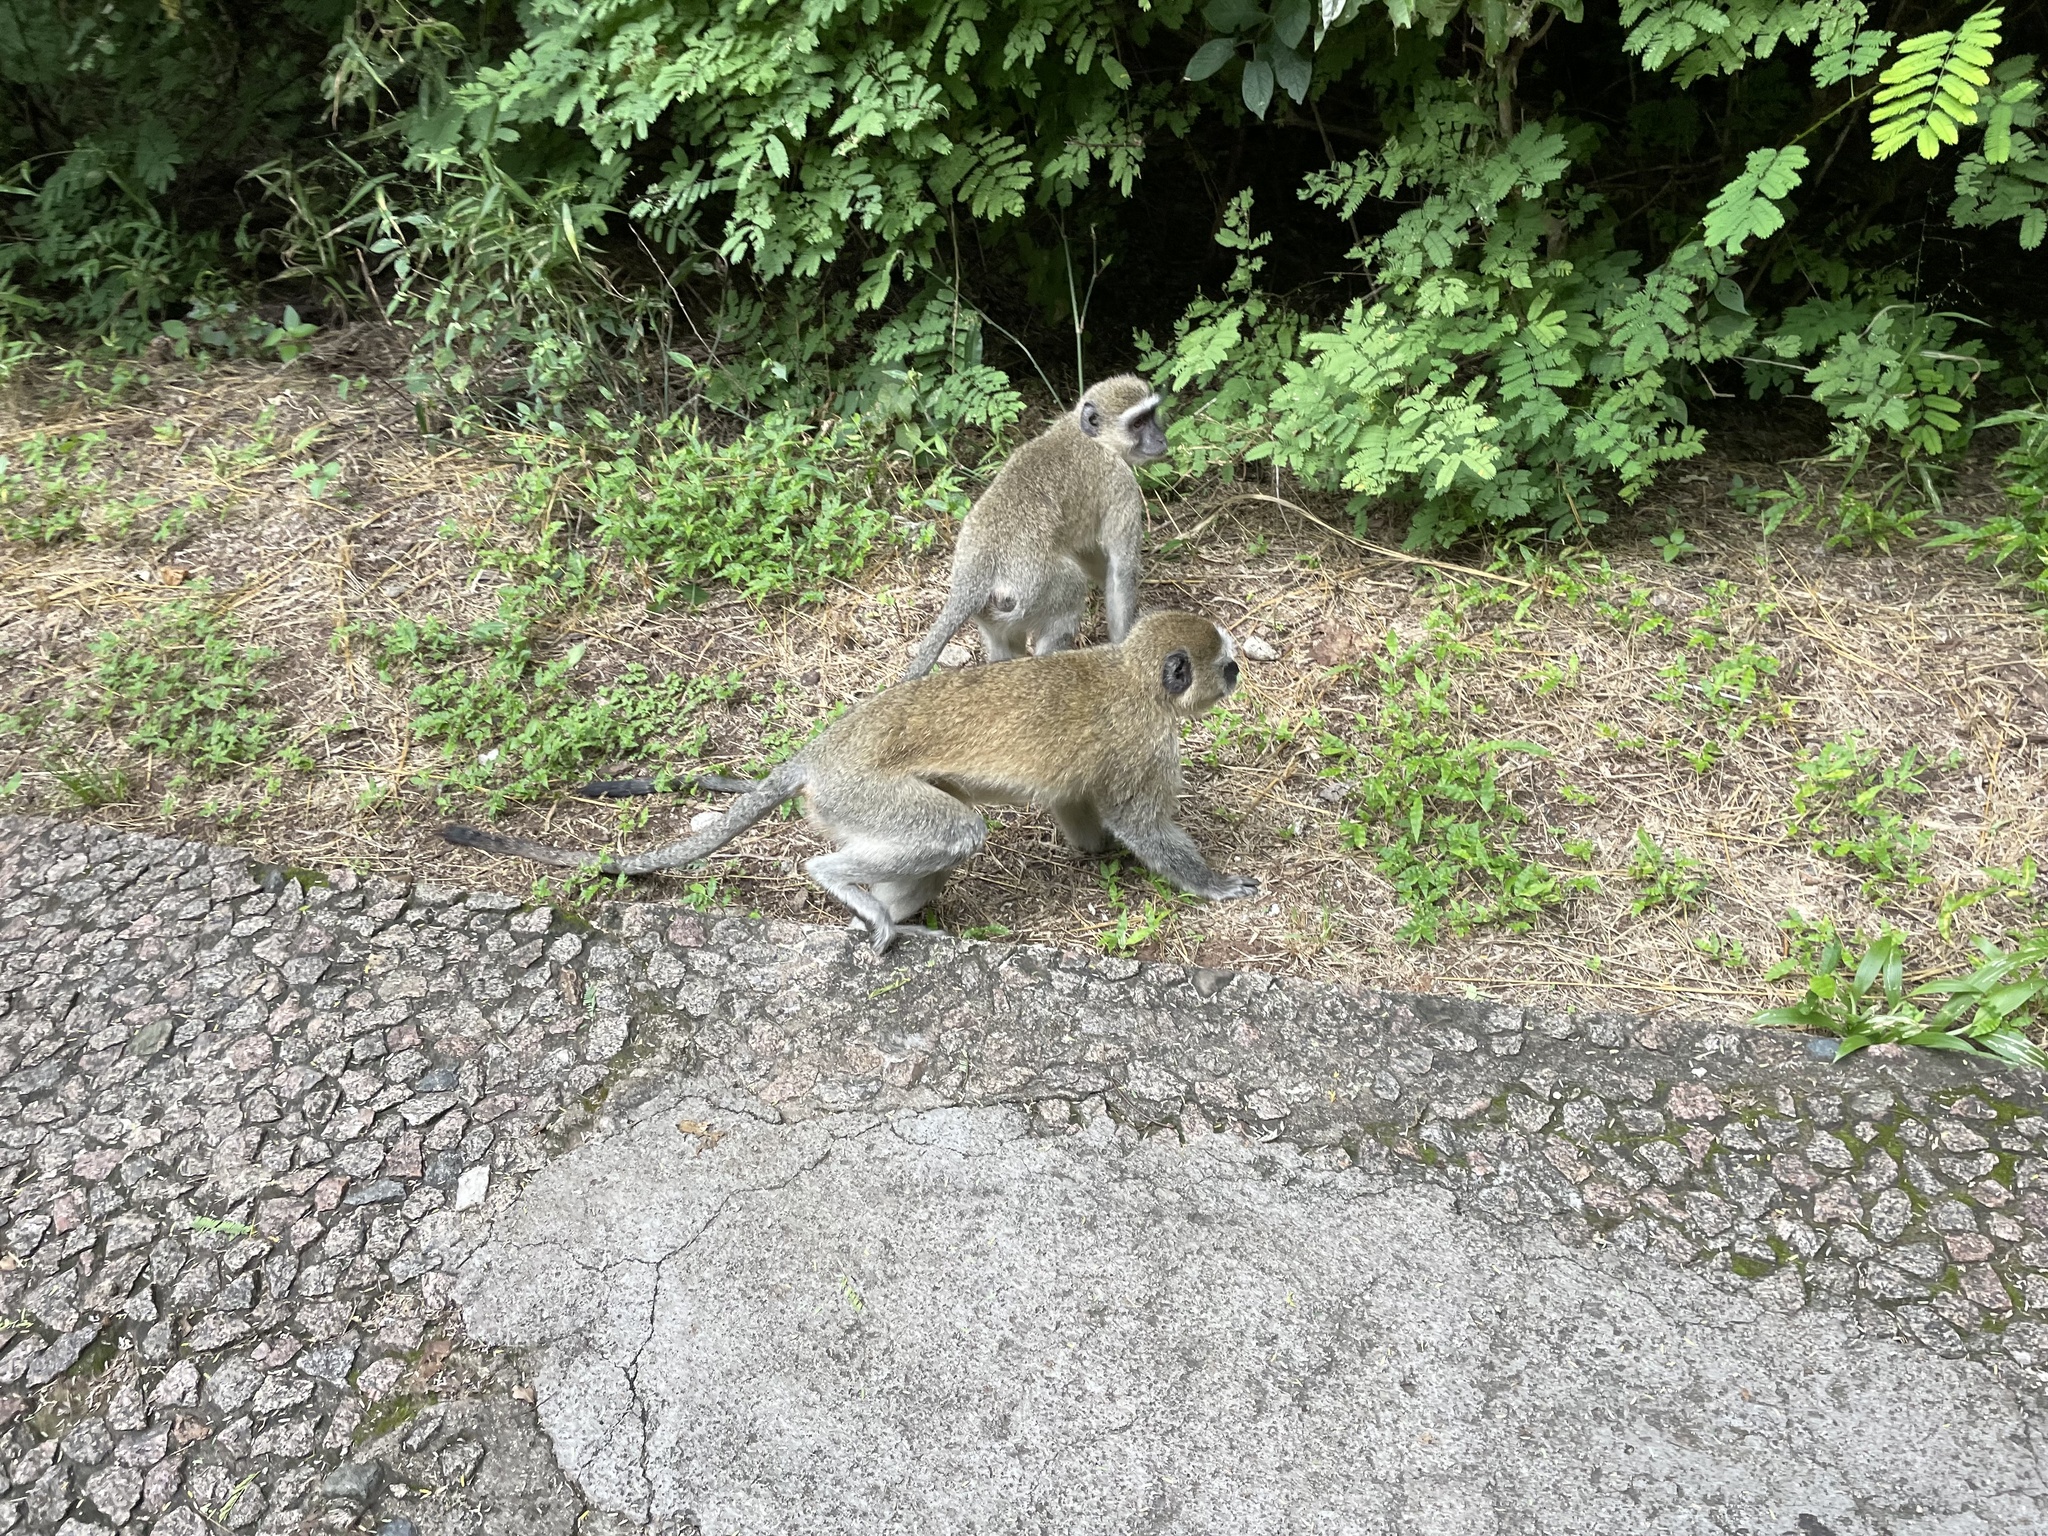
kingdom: Animalia
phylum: Chordata
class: Mammalia
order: Primates
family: Cercopithecidae
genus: Chlorocebus
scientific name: Chlorocebus pygerythrus
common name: Vervet monkey
